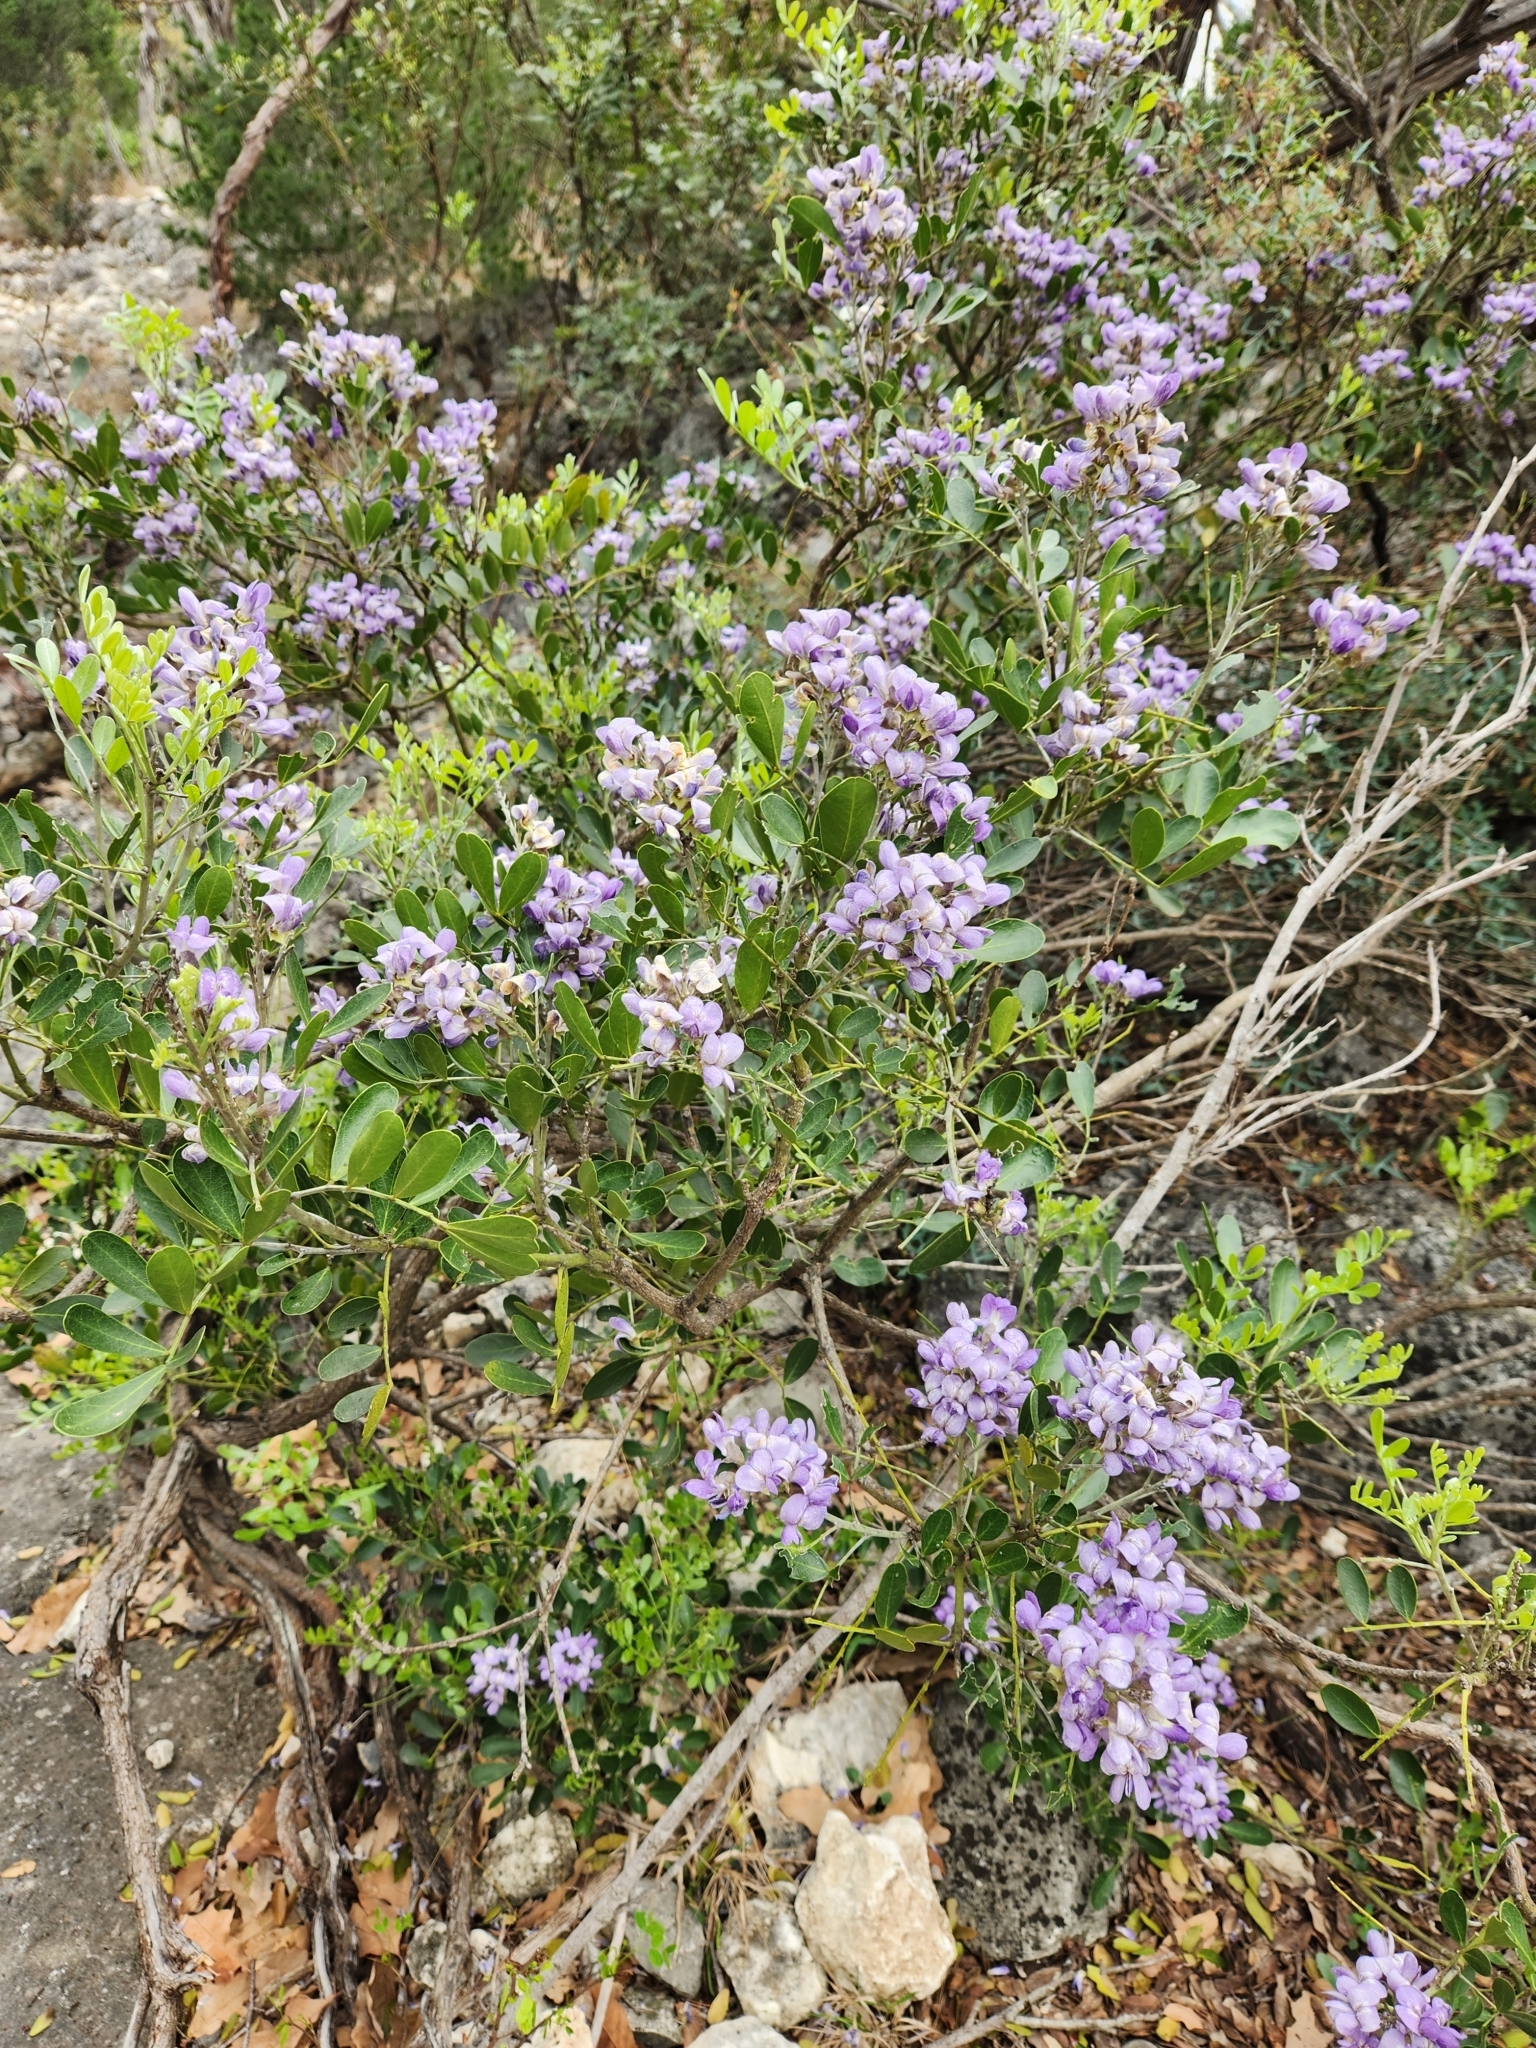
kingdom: Plantae
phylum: Tracheophyta
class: Magnoliopsida
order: Fabales
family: Fabaceae
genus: Dermatophyllum
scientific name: Dermatophyllum secundiflorum
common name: Texas-mountain-laurel
